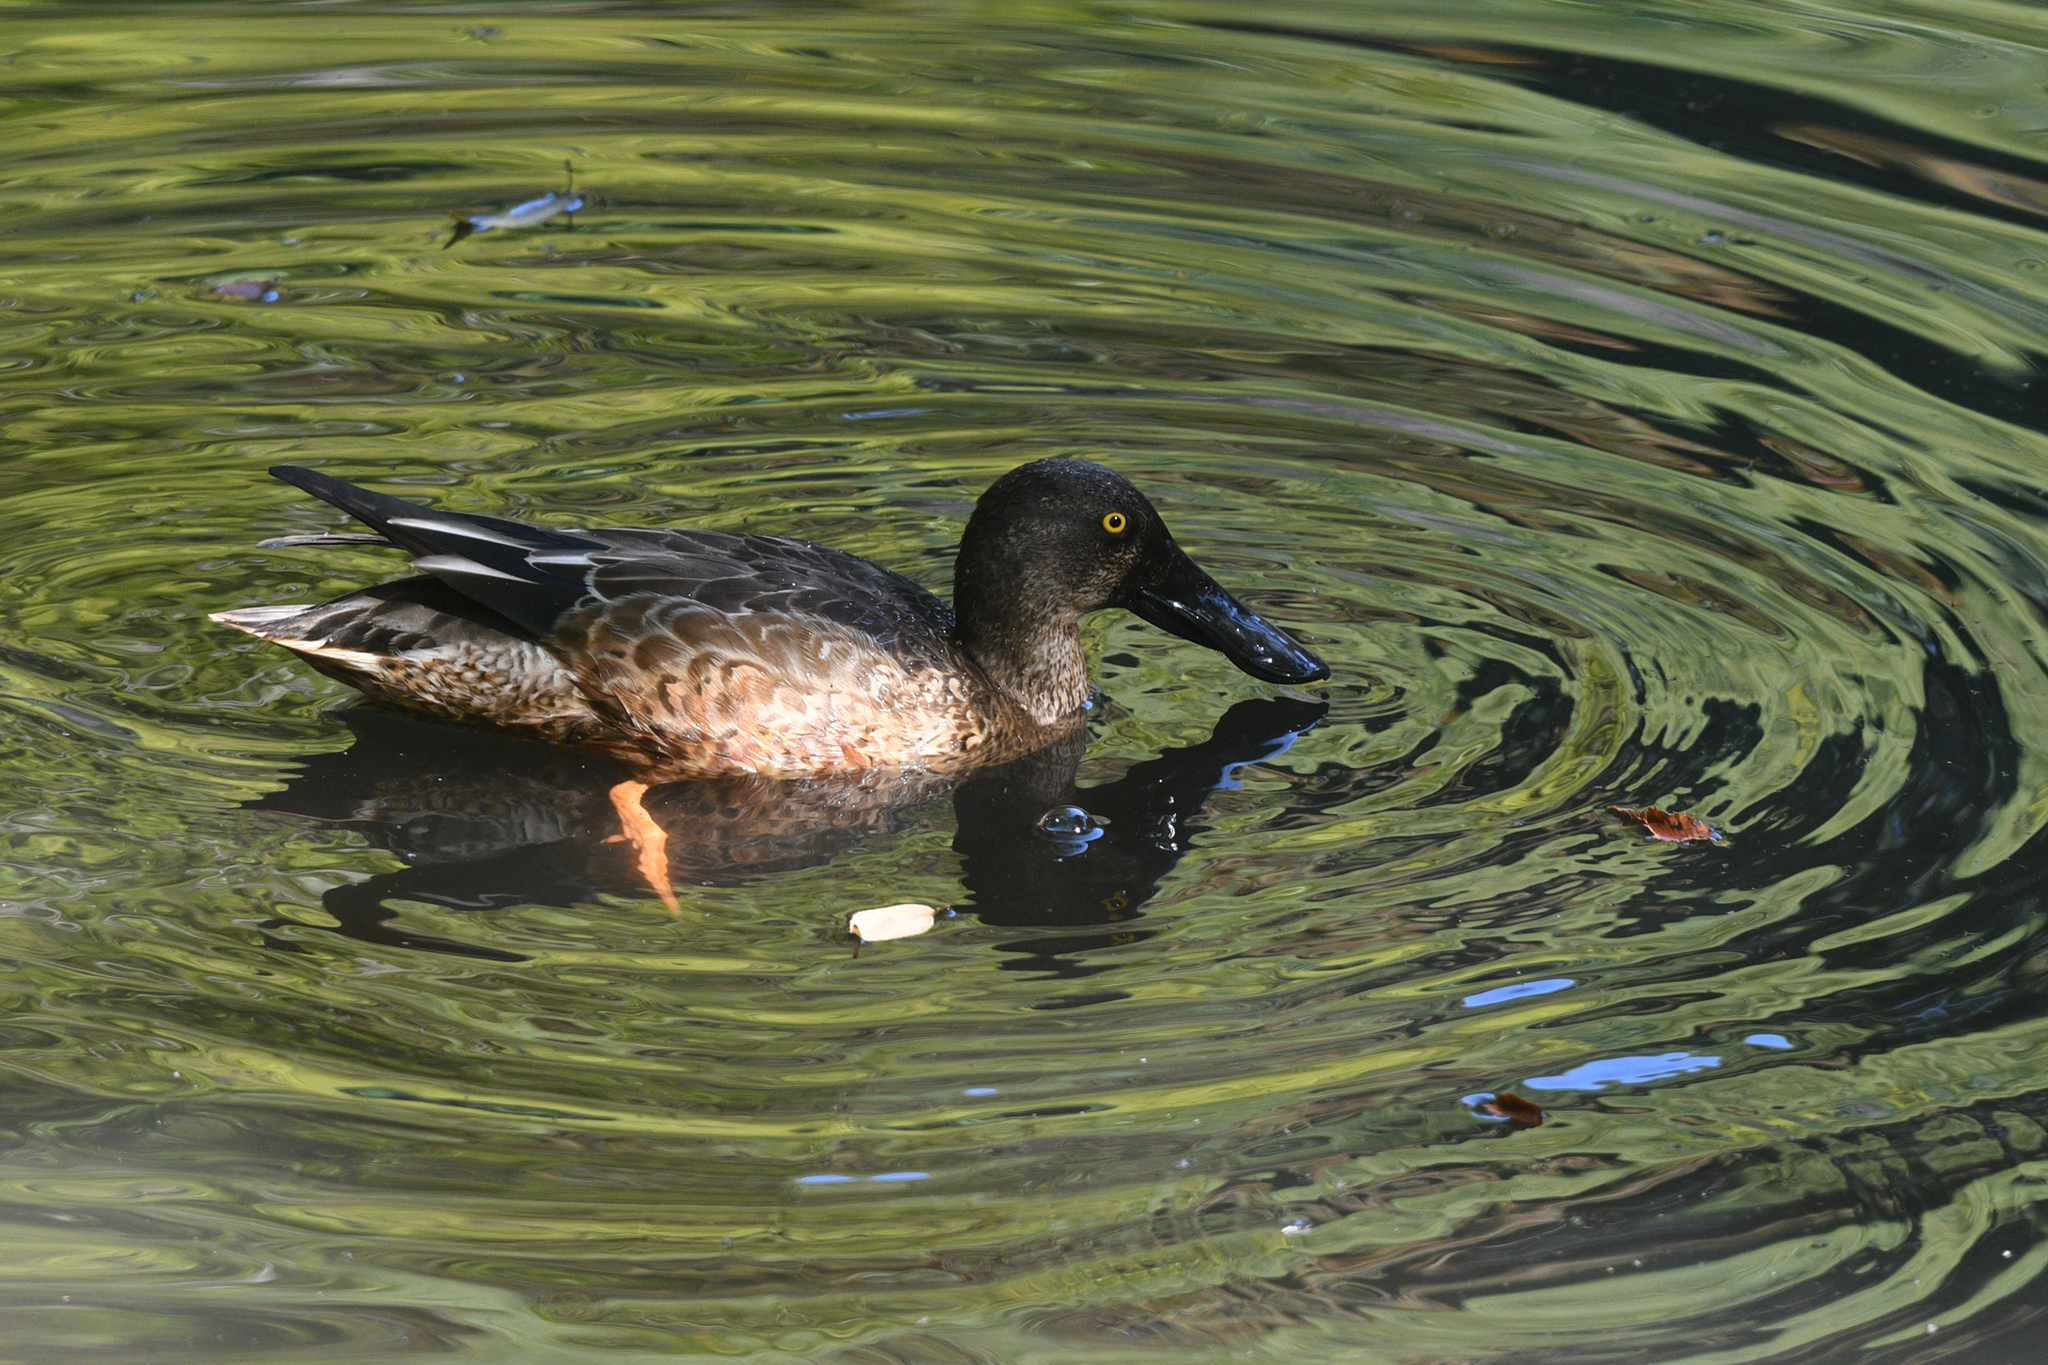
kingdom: Animalia
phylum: Chordata
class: Aves
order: Anseriformes
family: Anatidae
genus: Spatula
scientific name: Spatula clypeata
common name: Northern shoveler
